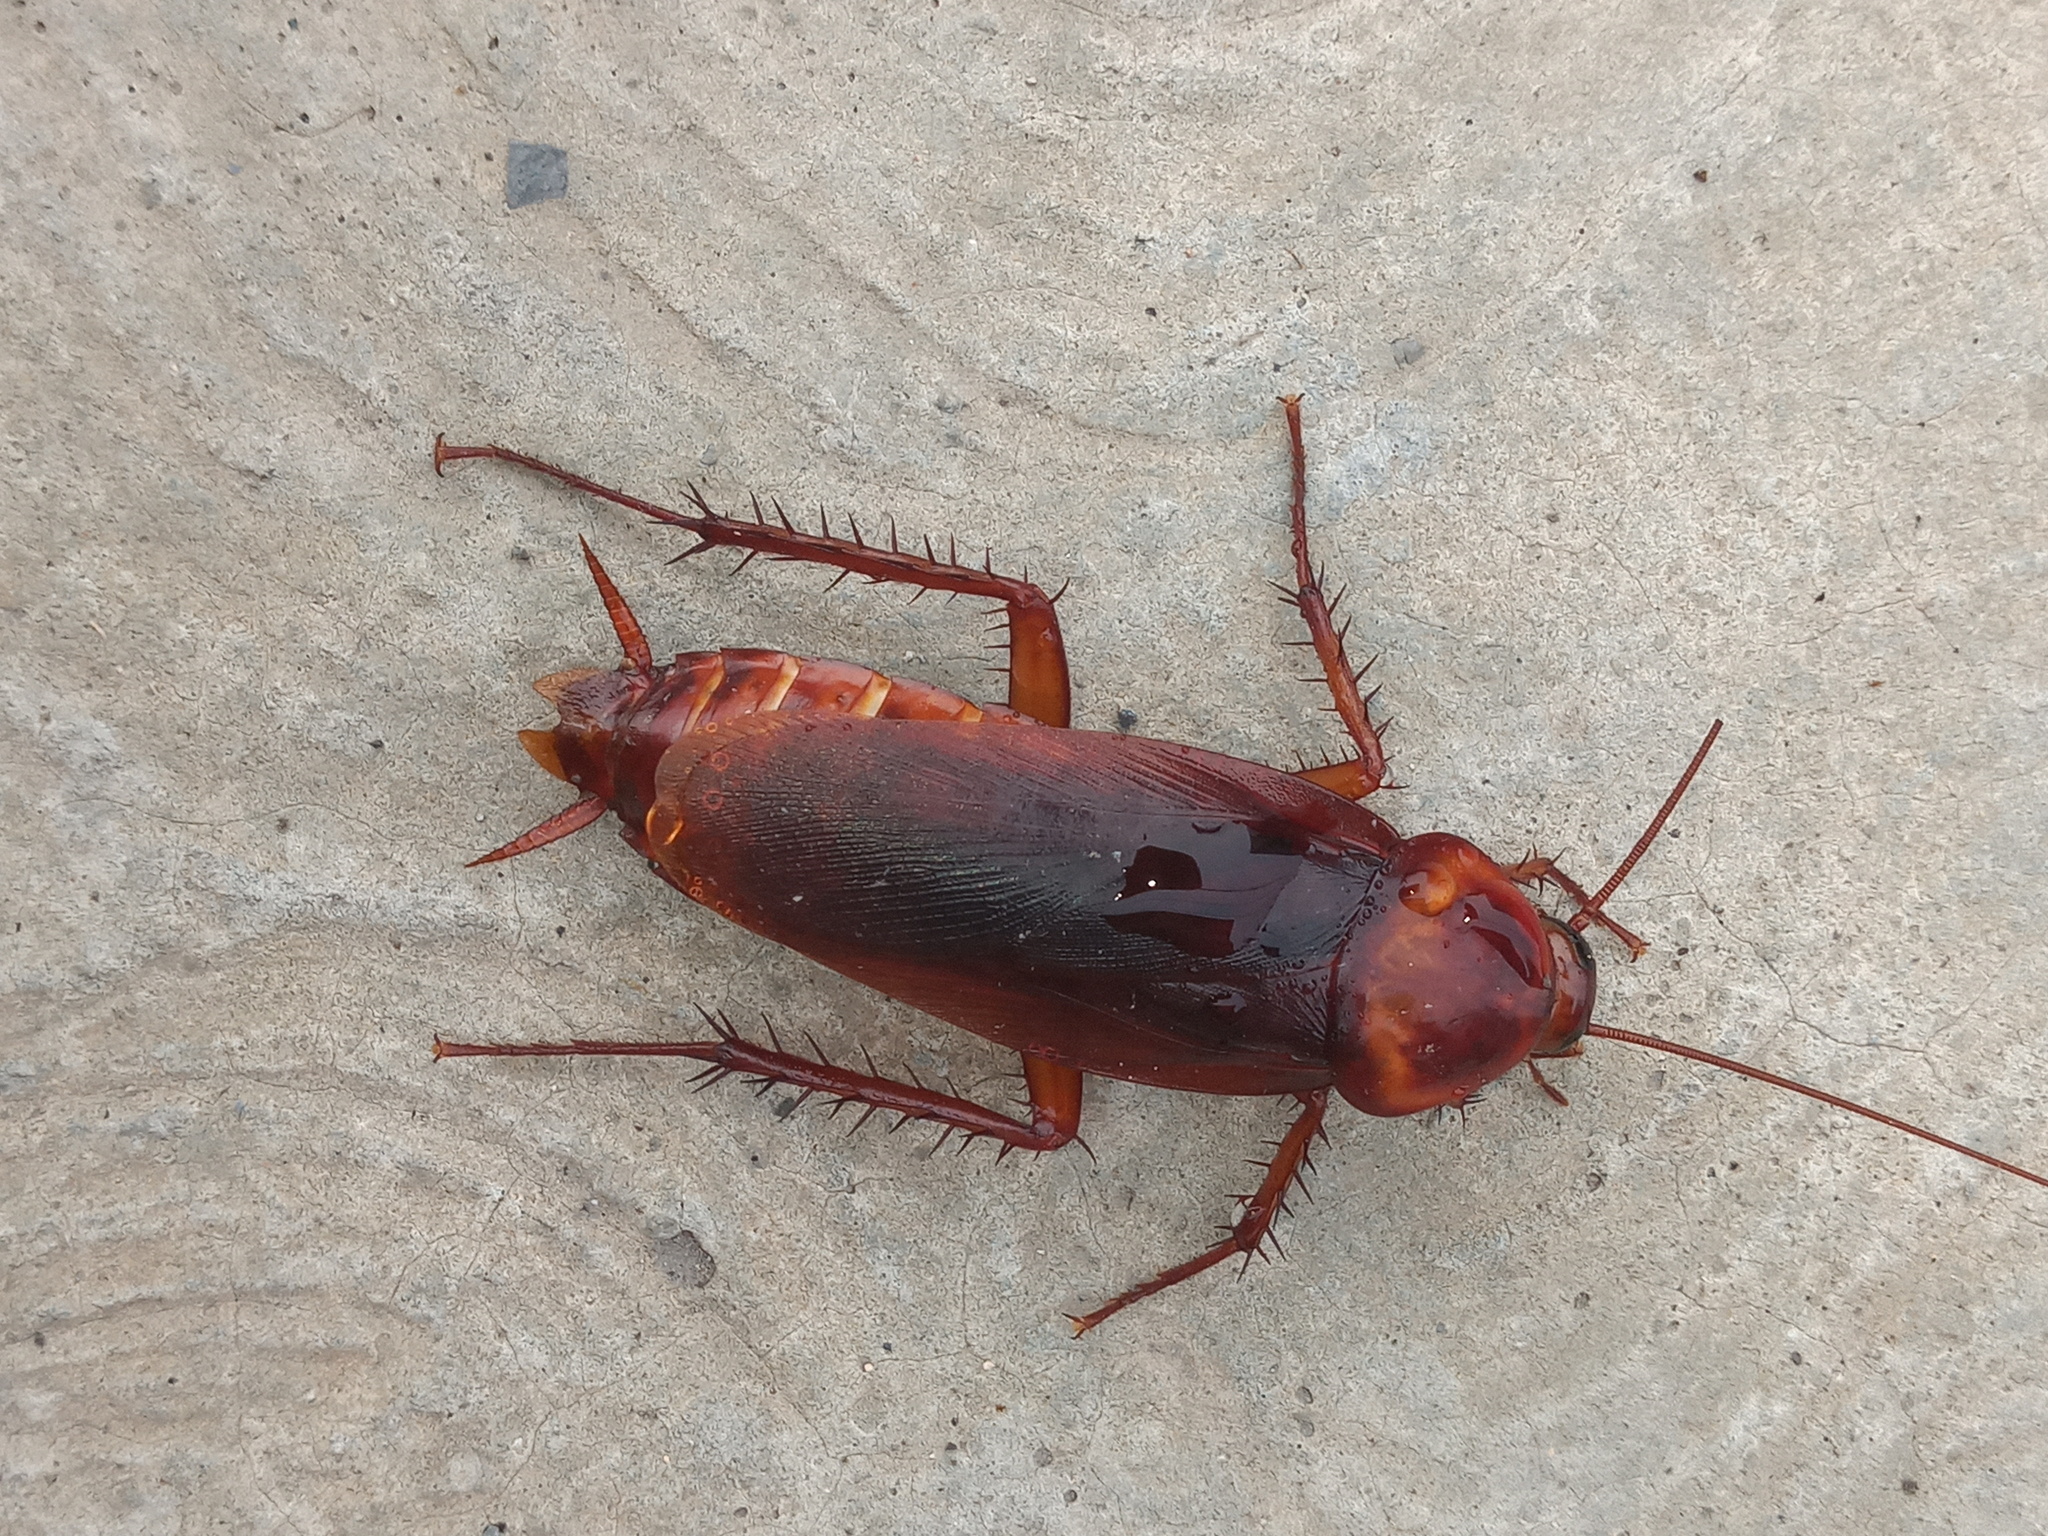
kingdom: Animalia
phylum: Arthropoda
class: Insecta
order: Blattodea
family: Blattidae
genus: Periplaneta
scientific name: Periplaneta americana
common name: American cockroach
